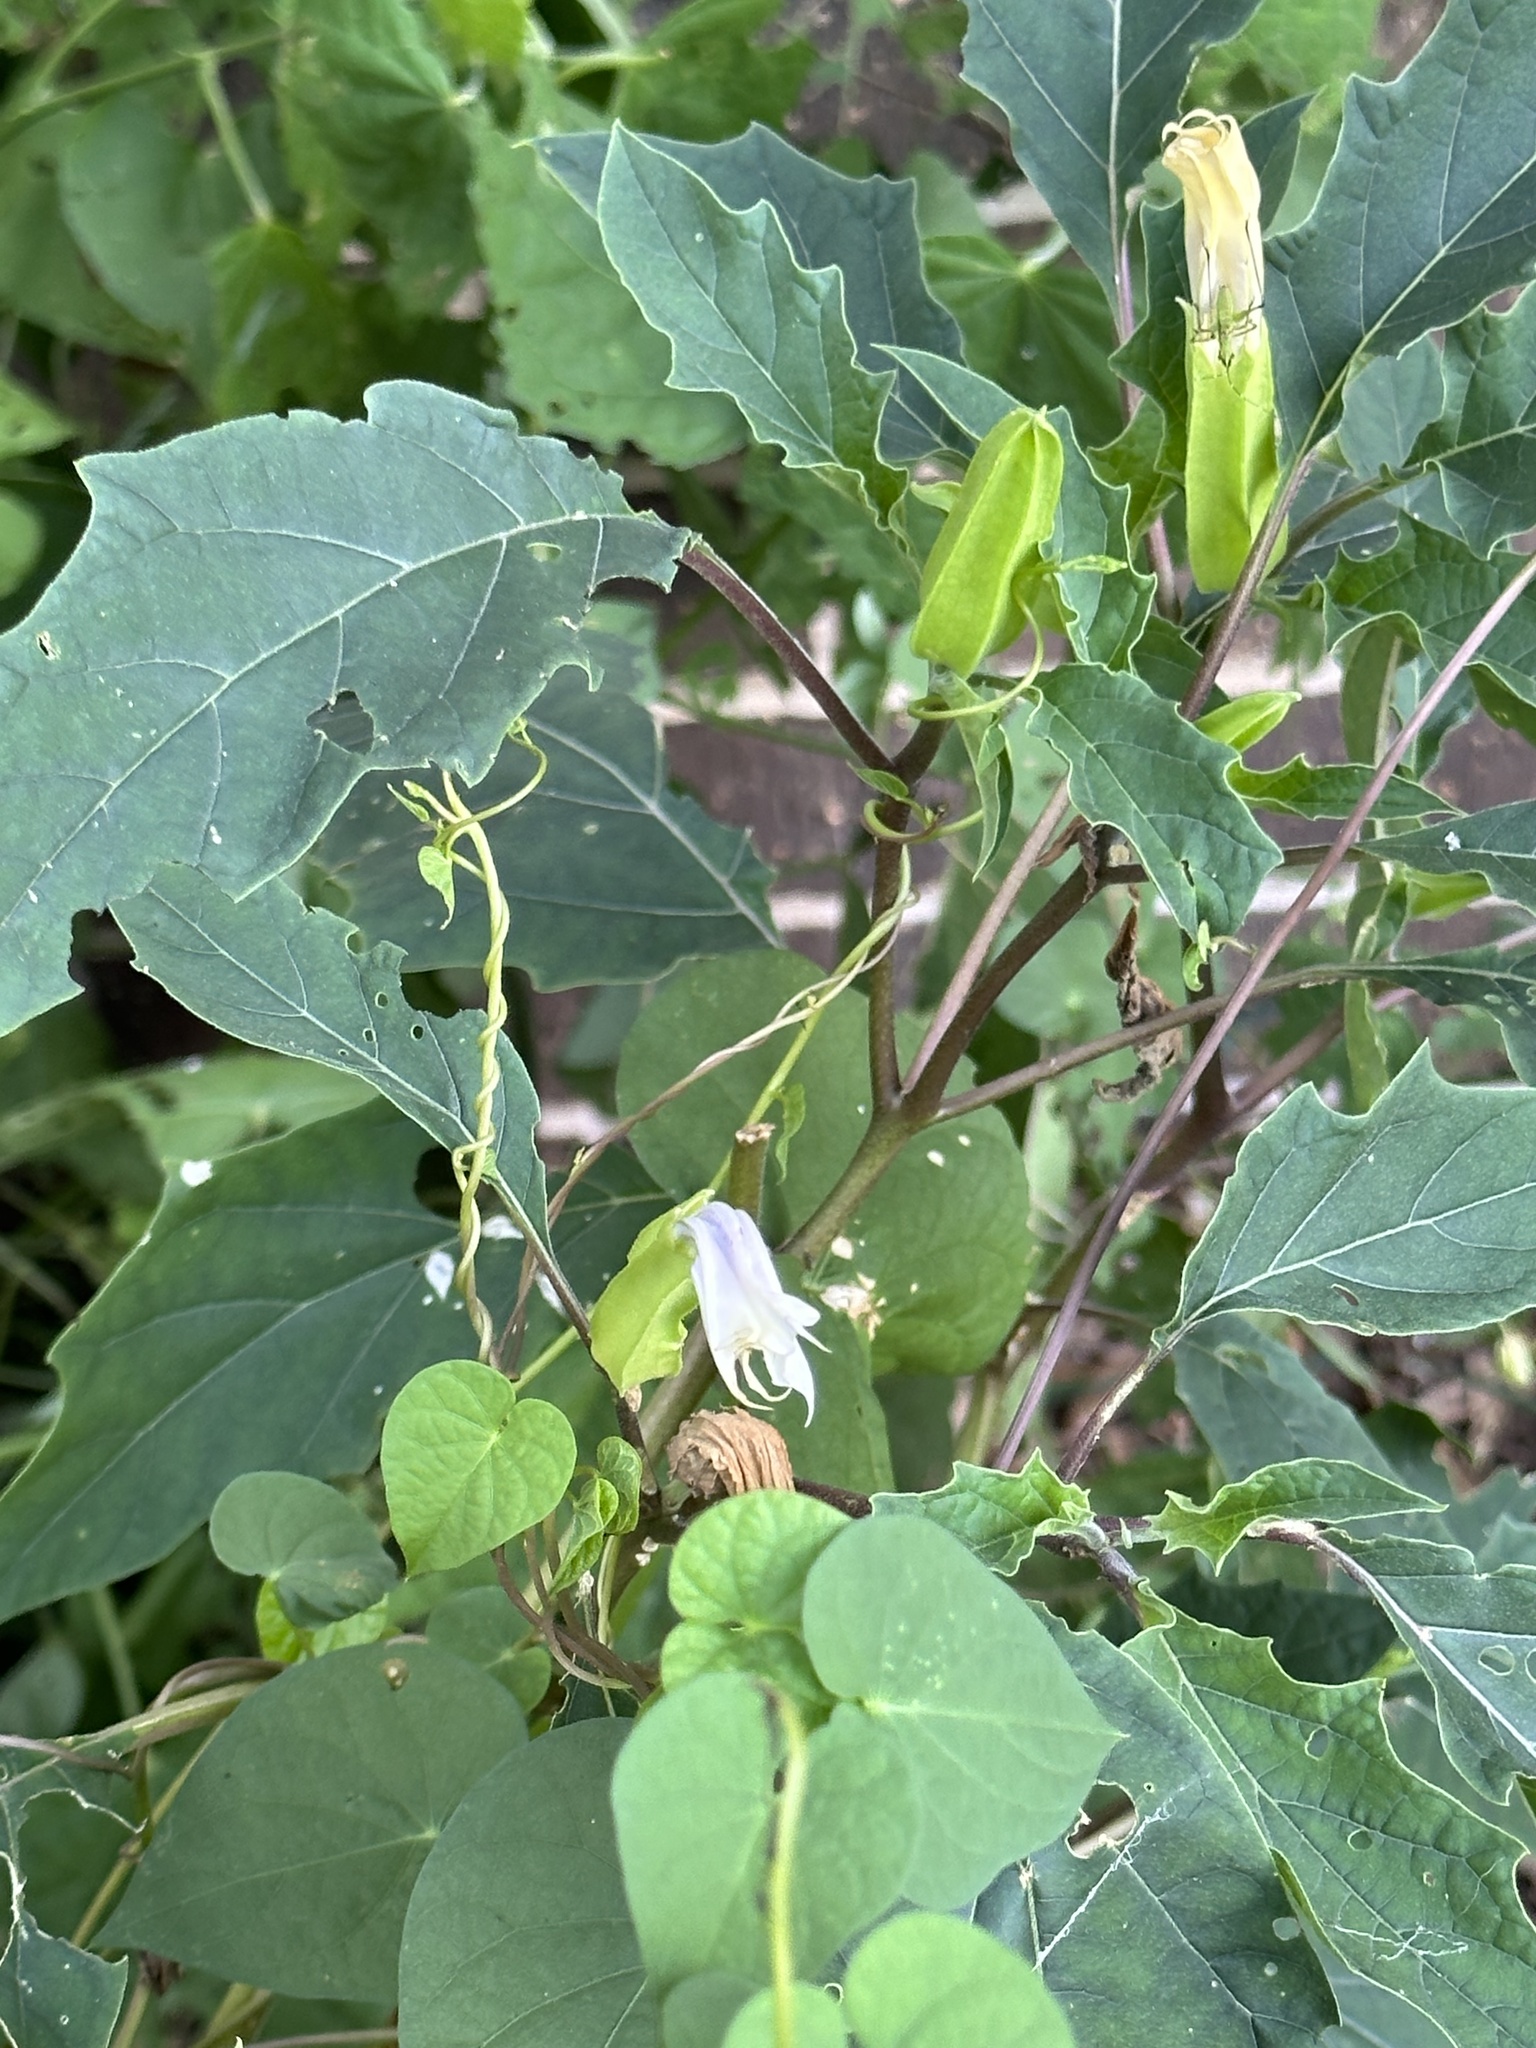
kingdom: Plantae
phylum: Tracheophyta
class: Magnoliopsida
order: Solanales
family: Solanaceae
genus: Datura
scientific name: Datura stramonium
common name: Thorn-apple
